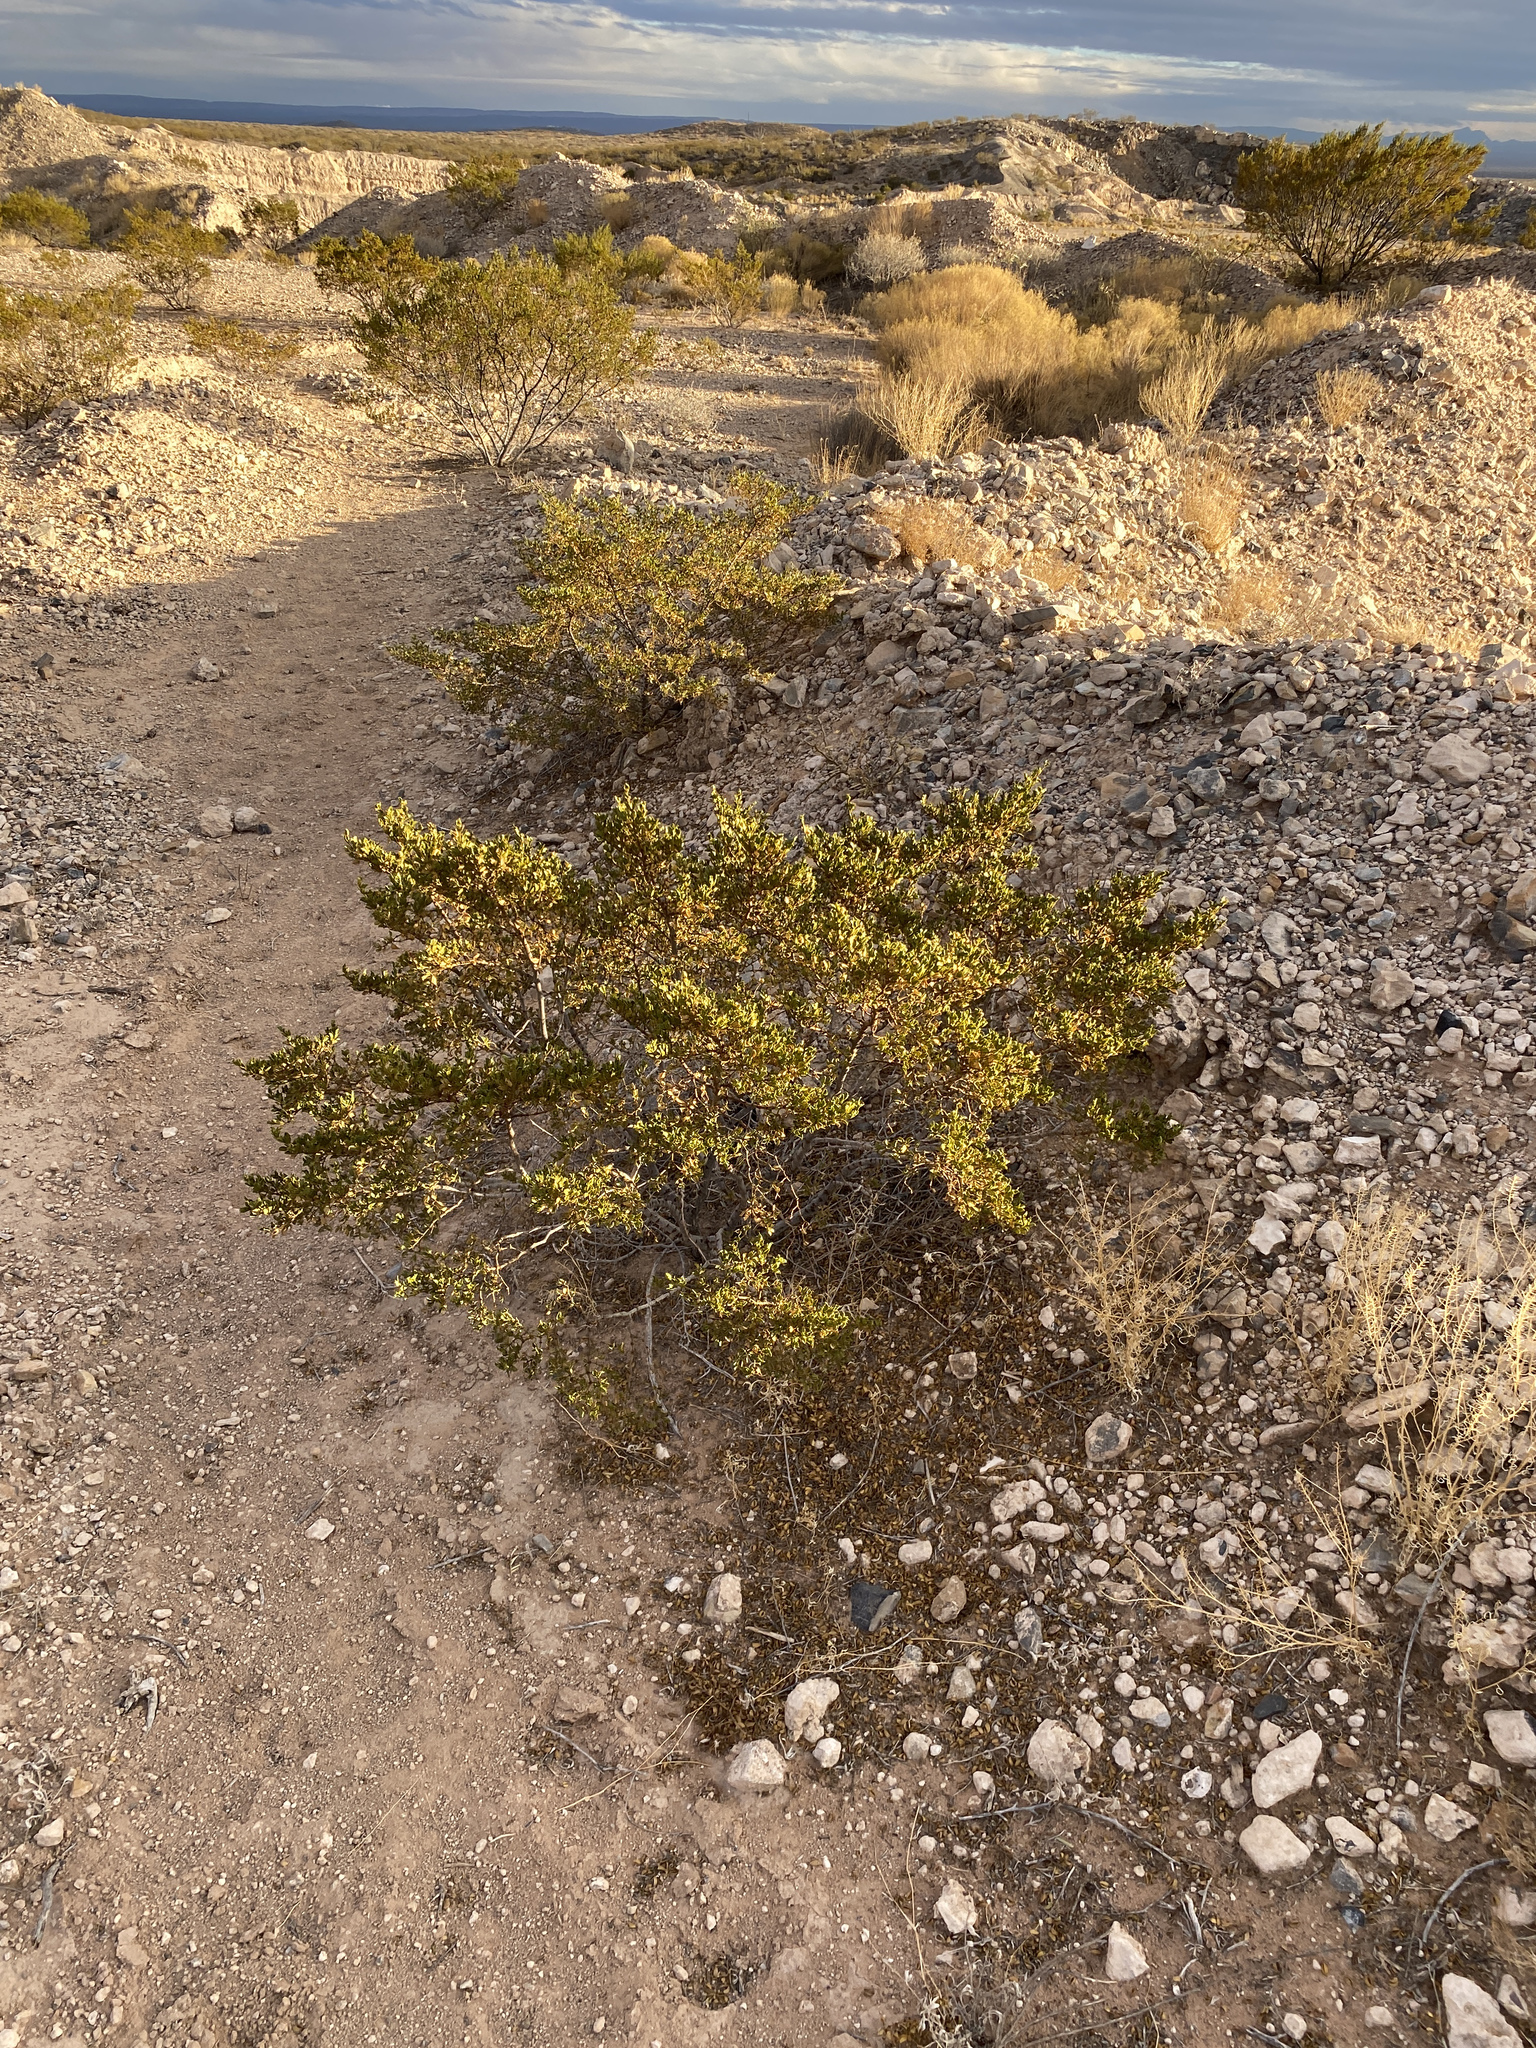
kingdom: Plantae
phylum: Tracheophyta
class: Magnoliopsida
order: Zygophyllales
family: Zygophyllaceae
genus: Larrea
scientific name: Larrea tridentata
